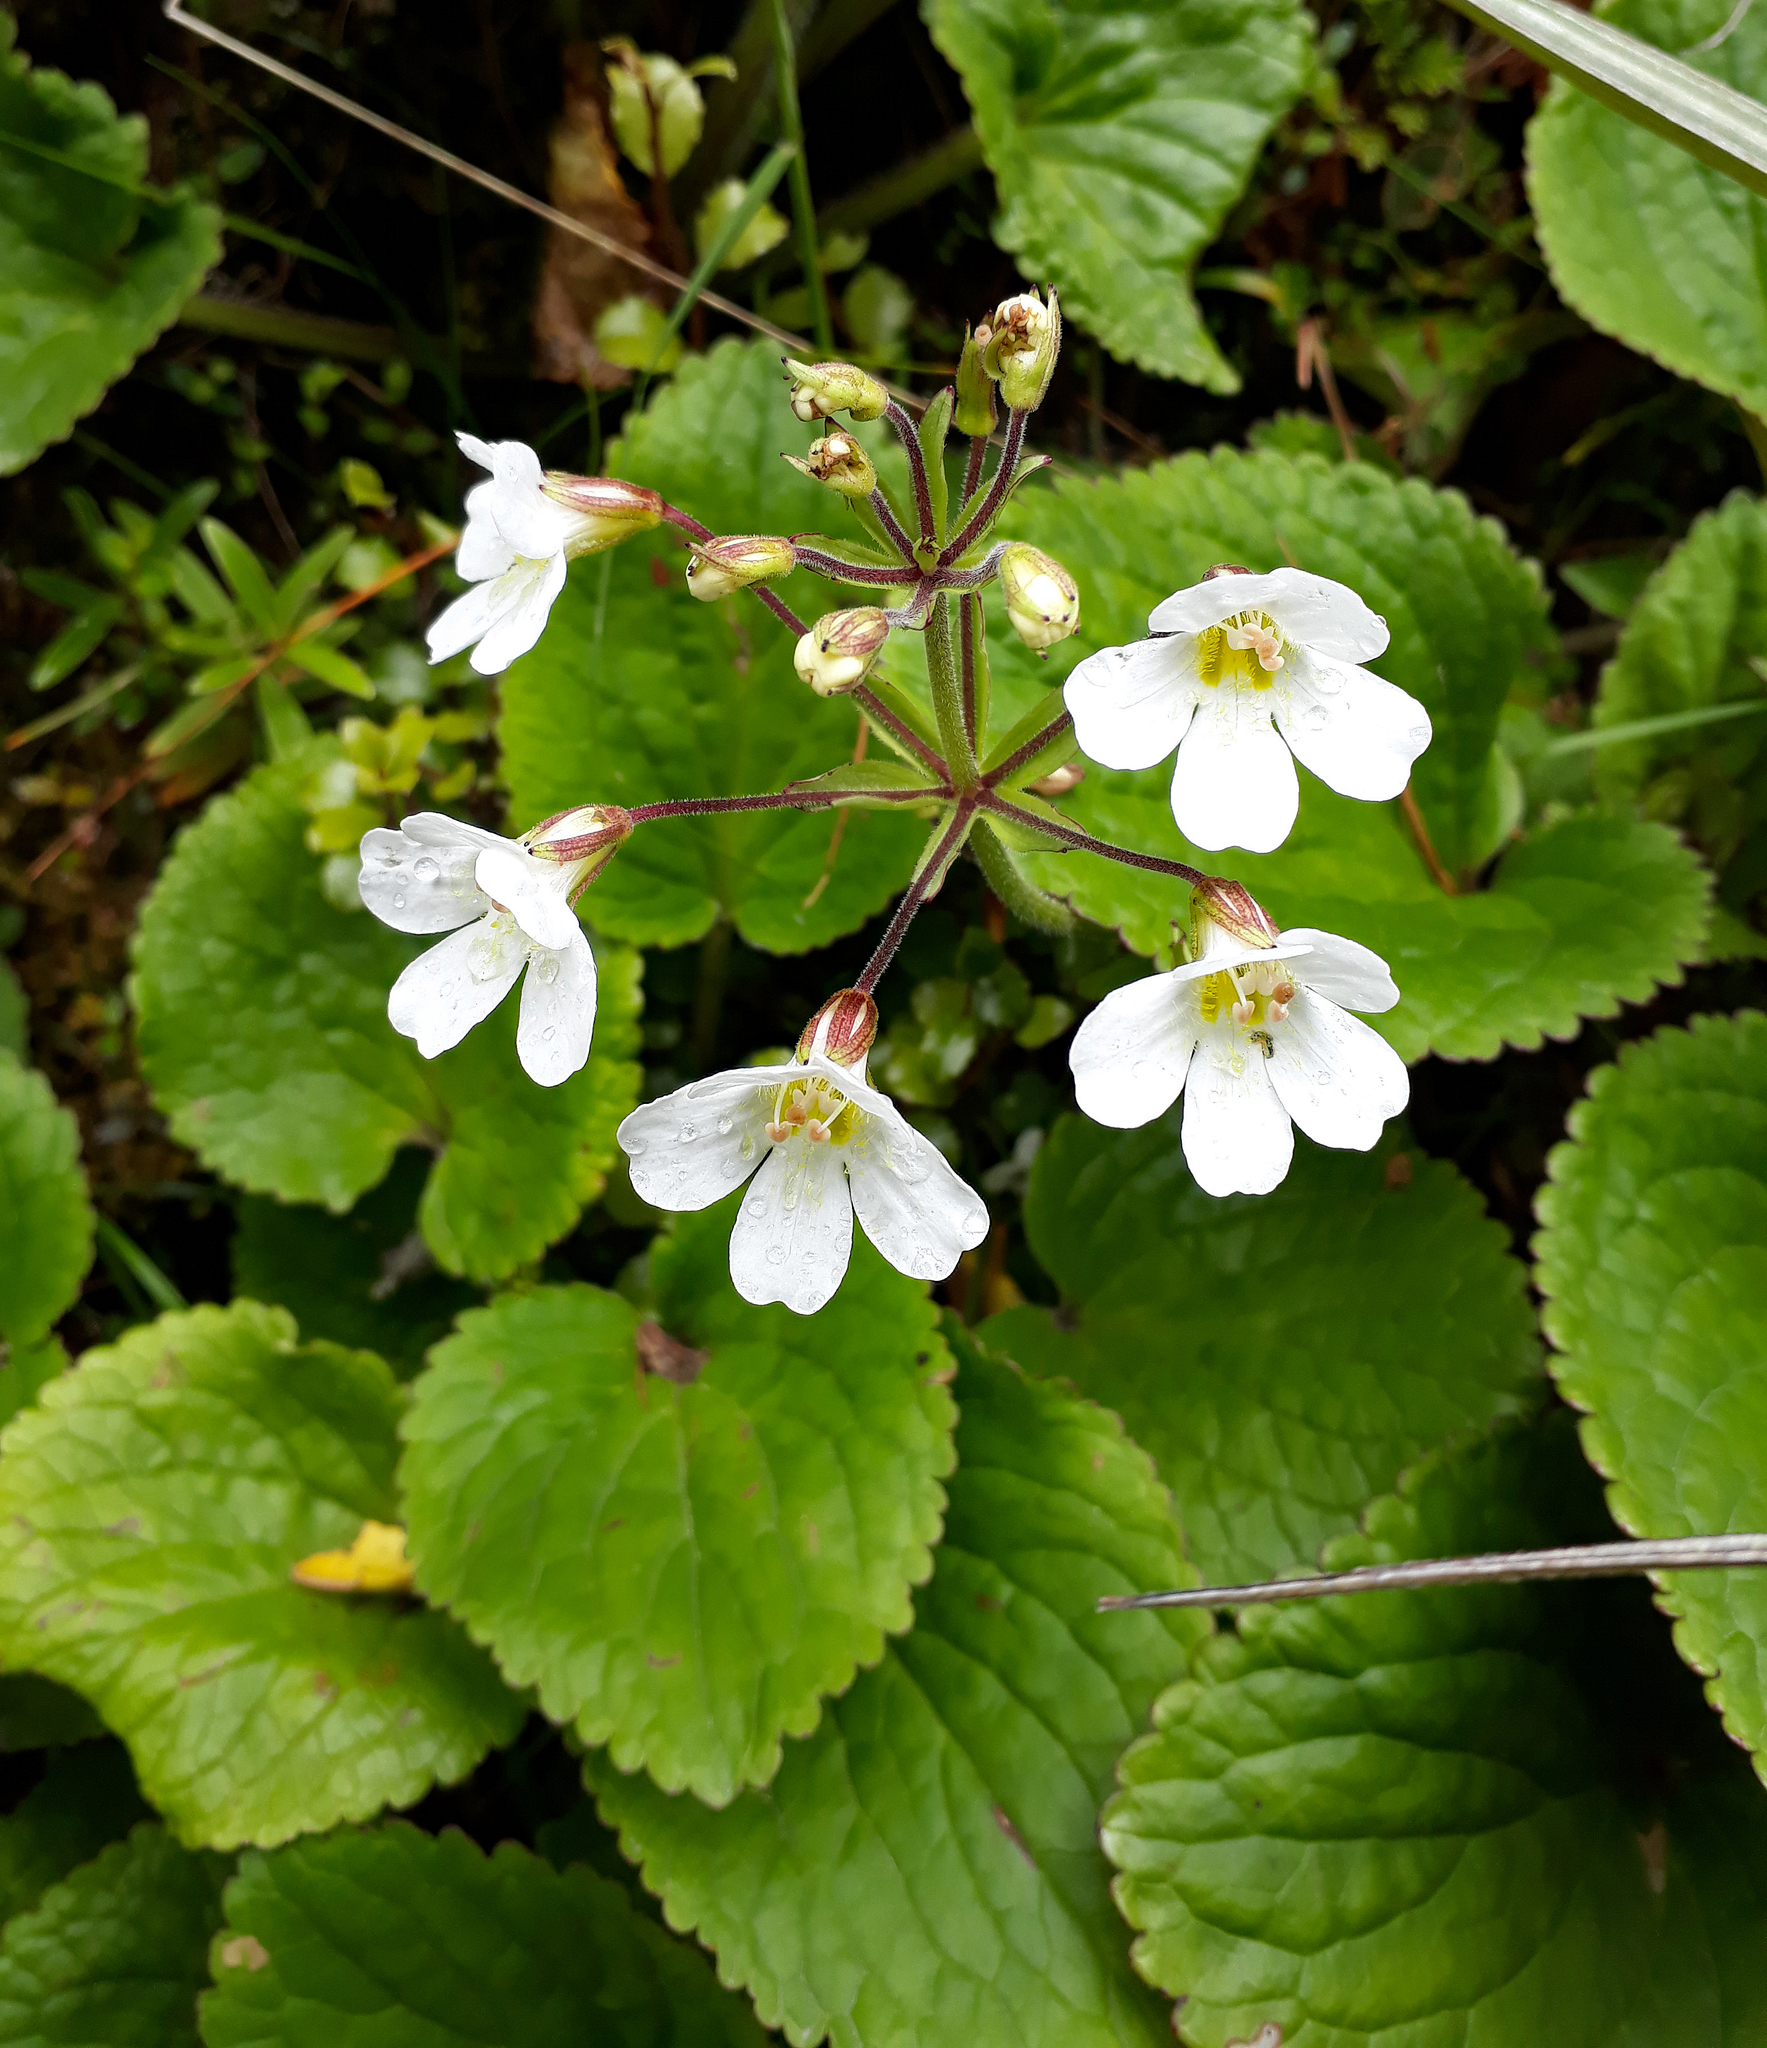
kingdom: Plantae
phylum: Tracheophyta
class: Magnoliopsida
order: Lamiales
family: Plantaginaceae
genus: Ourisia
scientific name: Ourisia macrophylla
